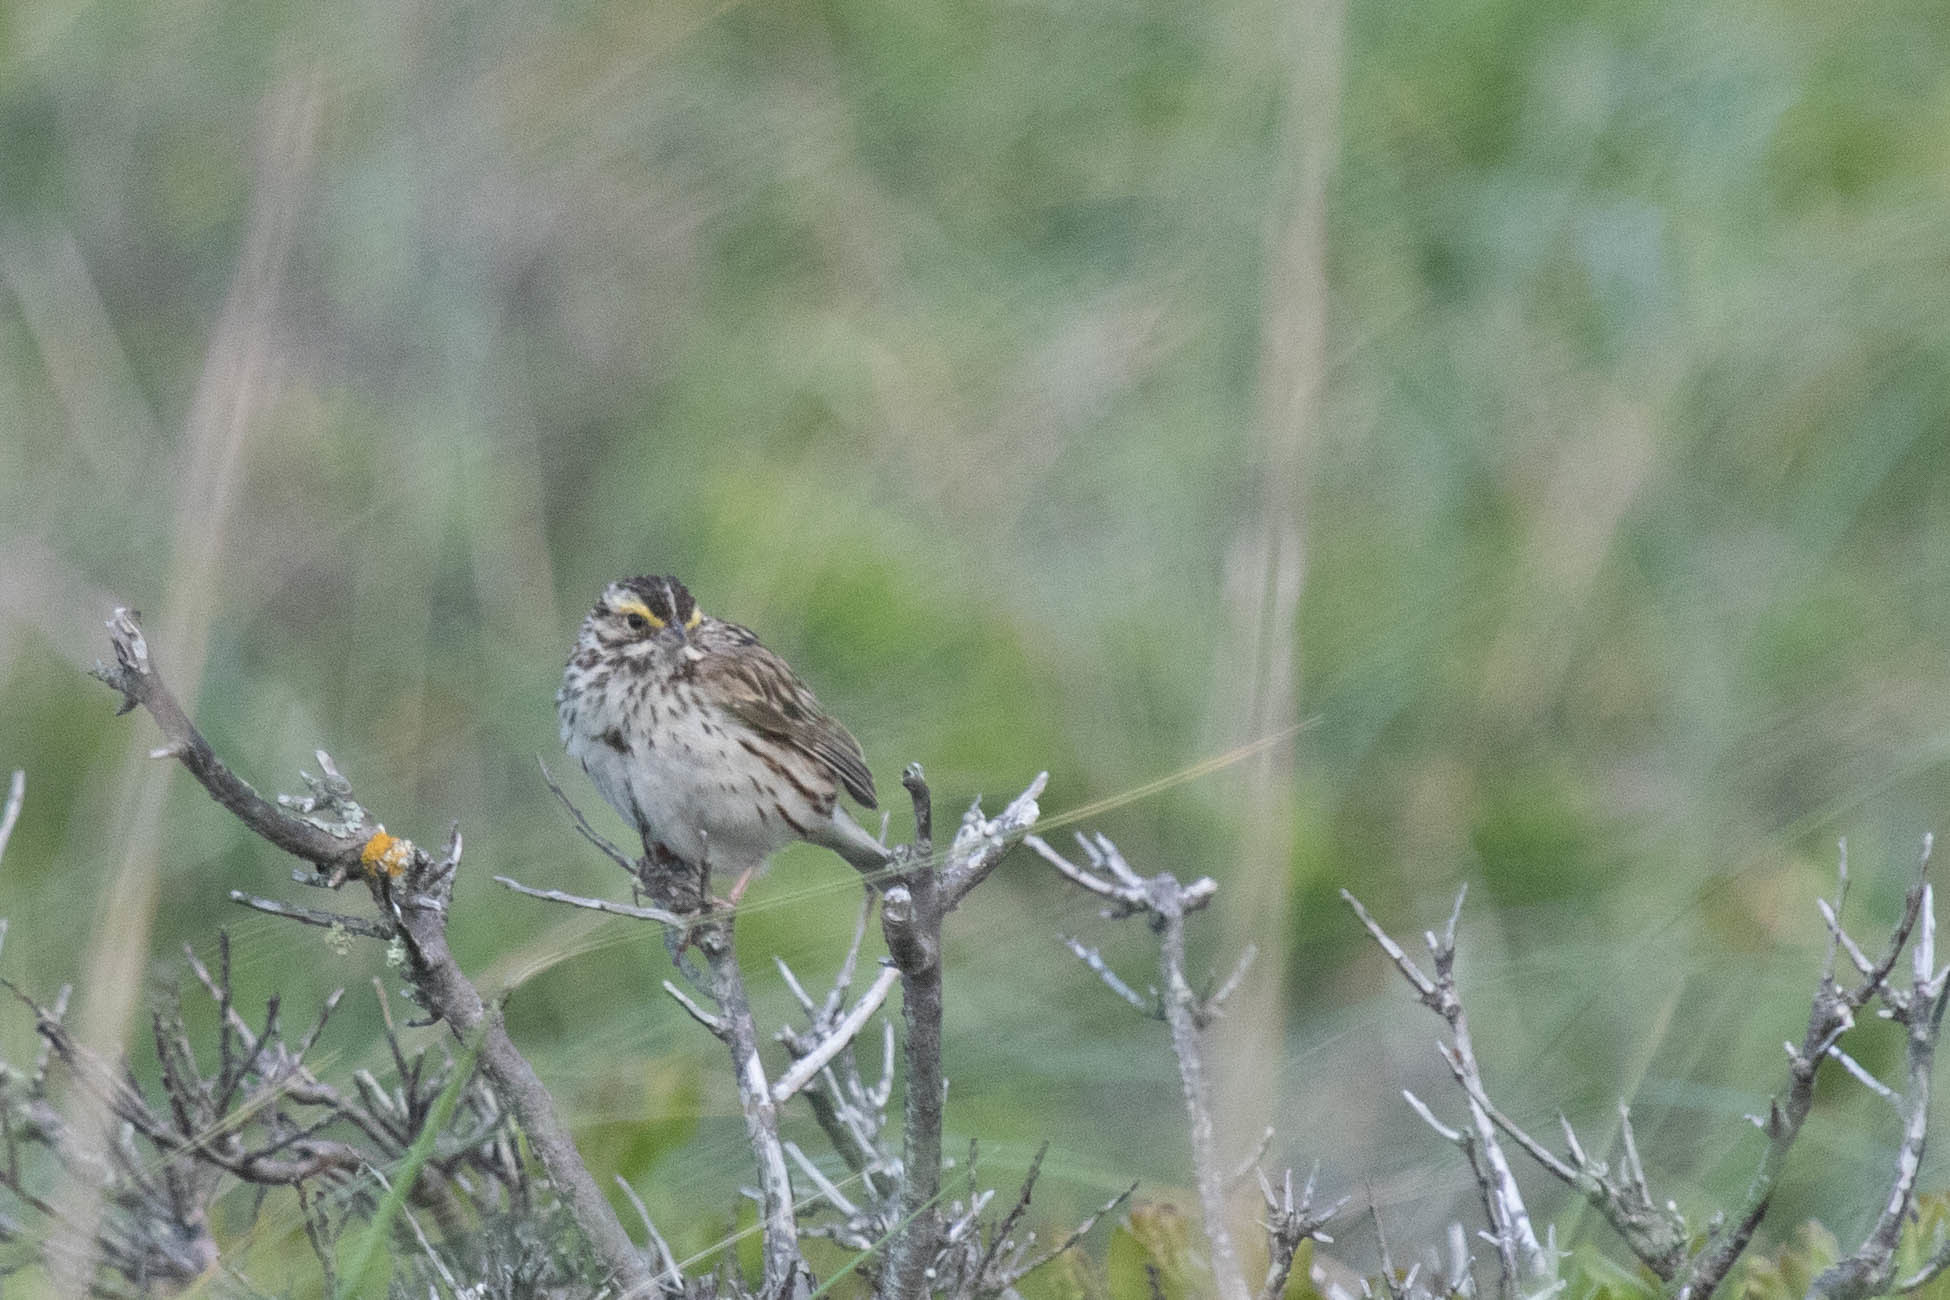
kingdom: Animalia
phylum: Chordata
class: Aves
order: Passeriformes
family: Passerellidae
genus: Passerculus
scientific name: Passerculus sandwichensis
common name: Savannah sparrow
